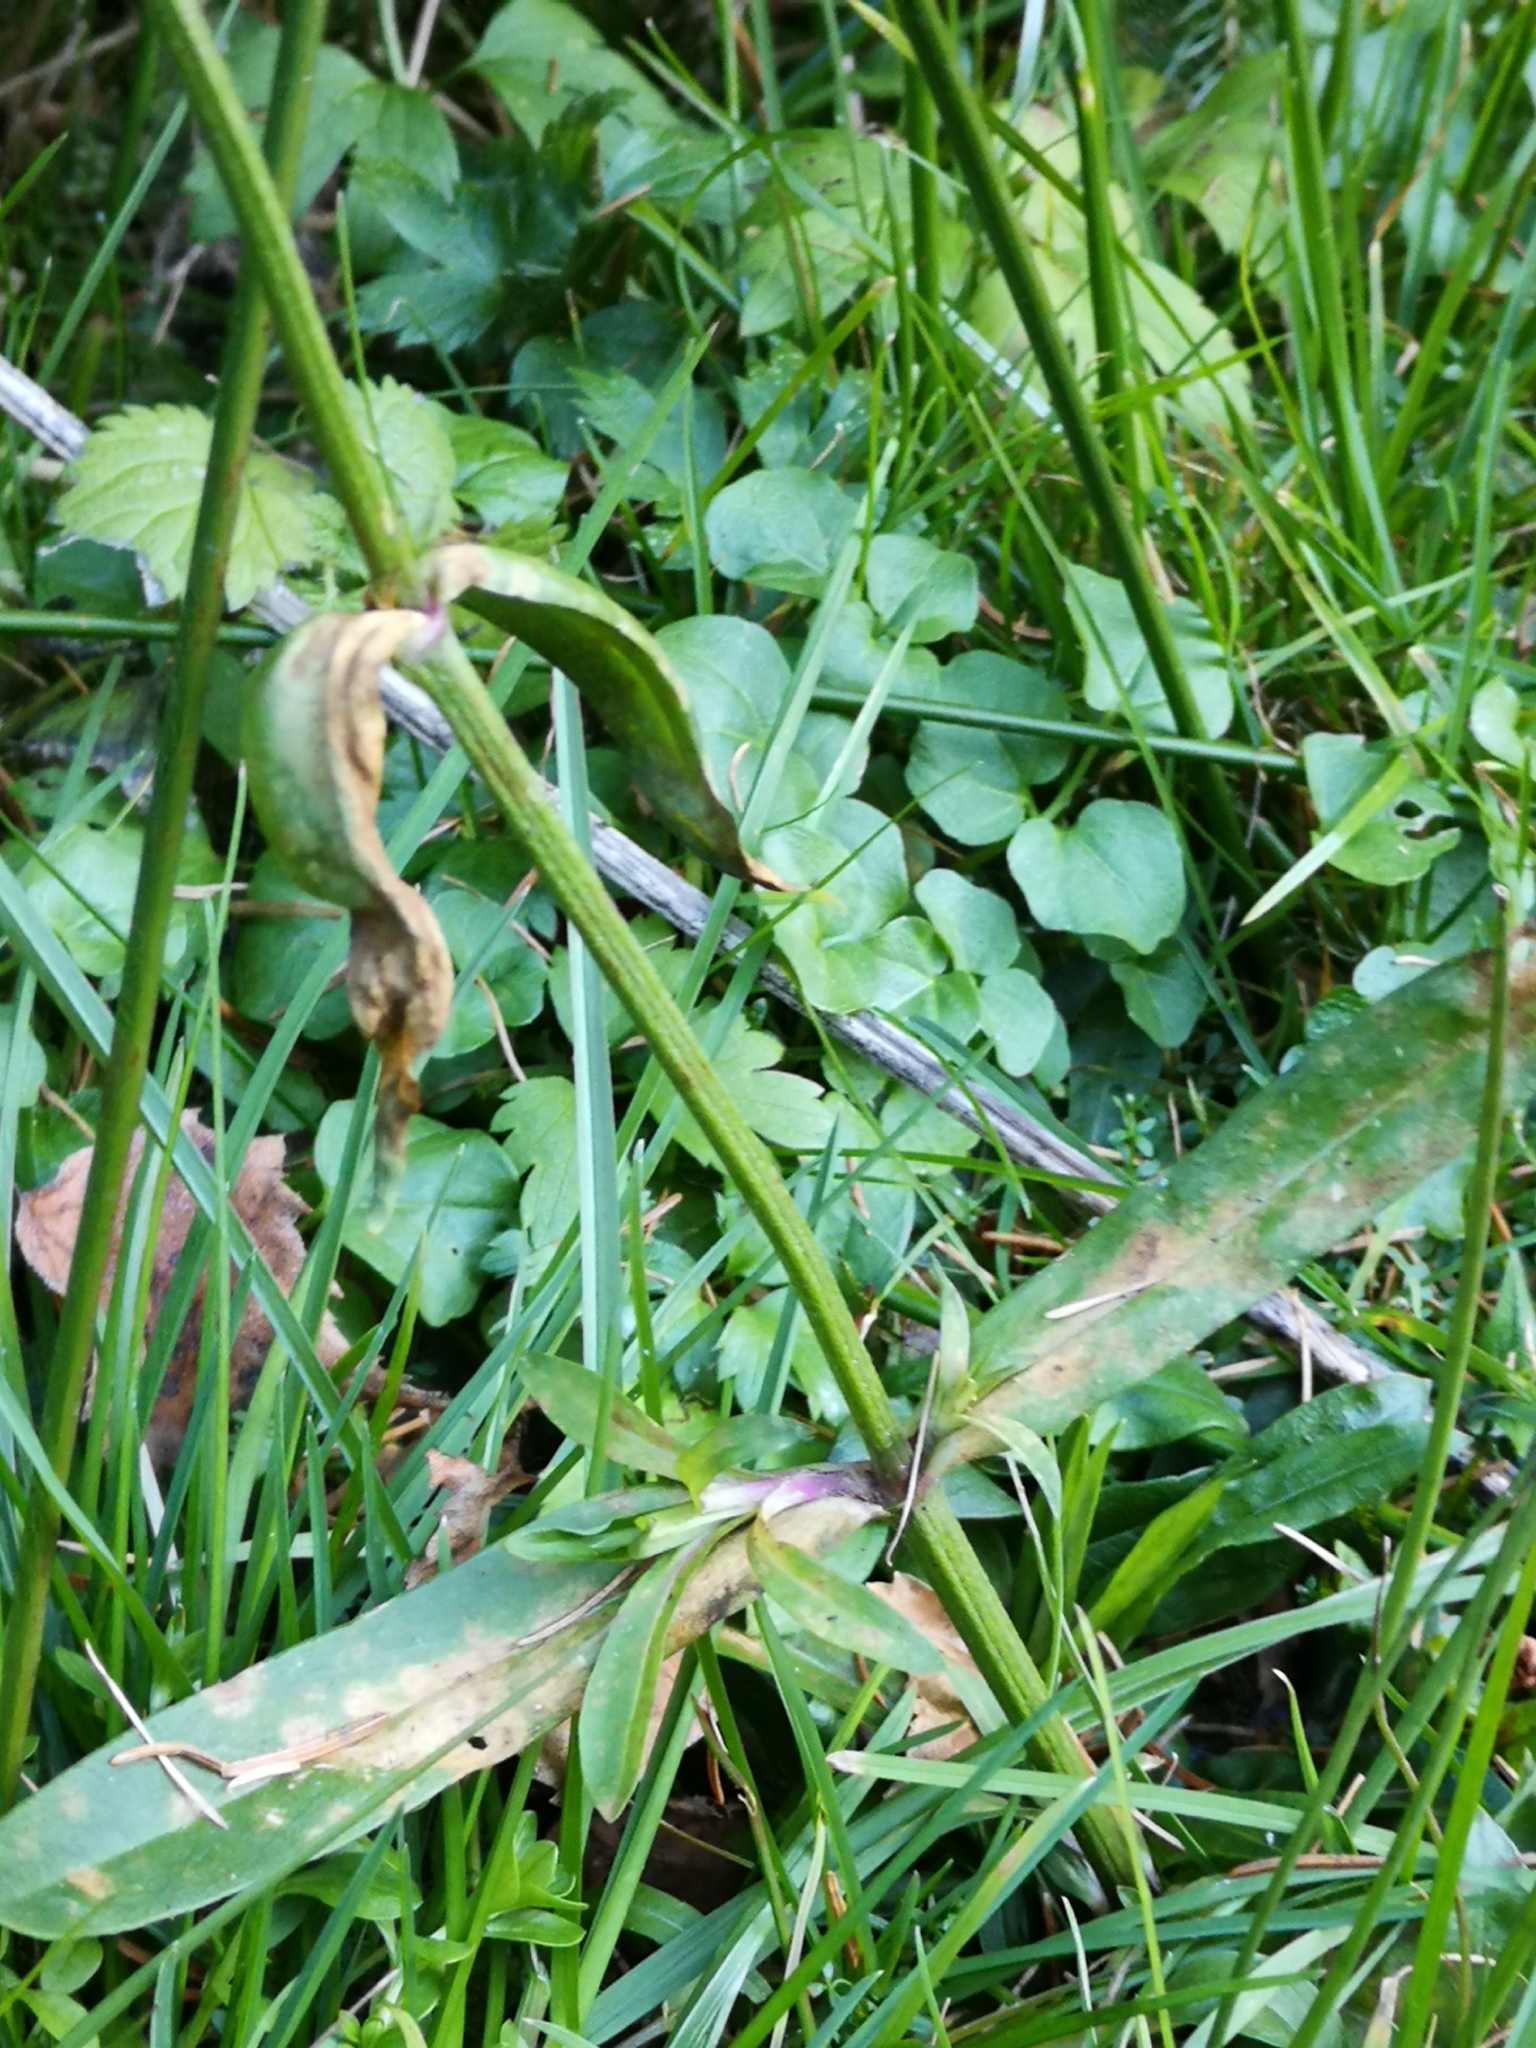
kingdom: Plantae
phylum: Tracheophyta
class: Magnoliopsida
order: Caryophyllales
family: Caryophyllaceae
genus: Silene
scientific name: Silene flos-cuculi
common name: Ragged-robin
